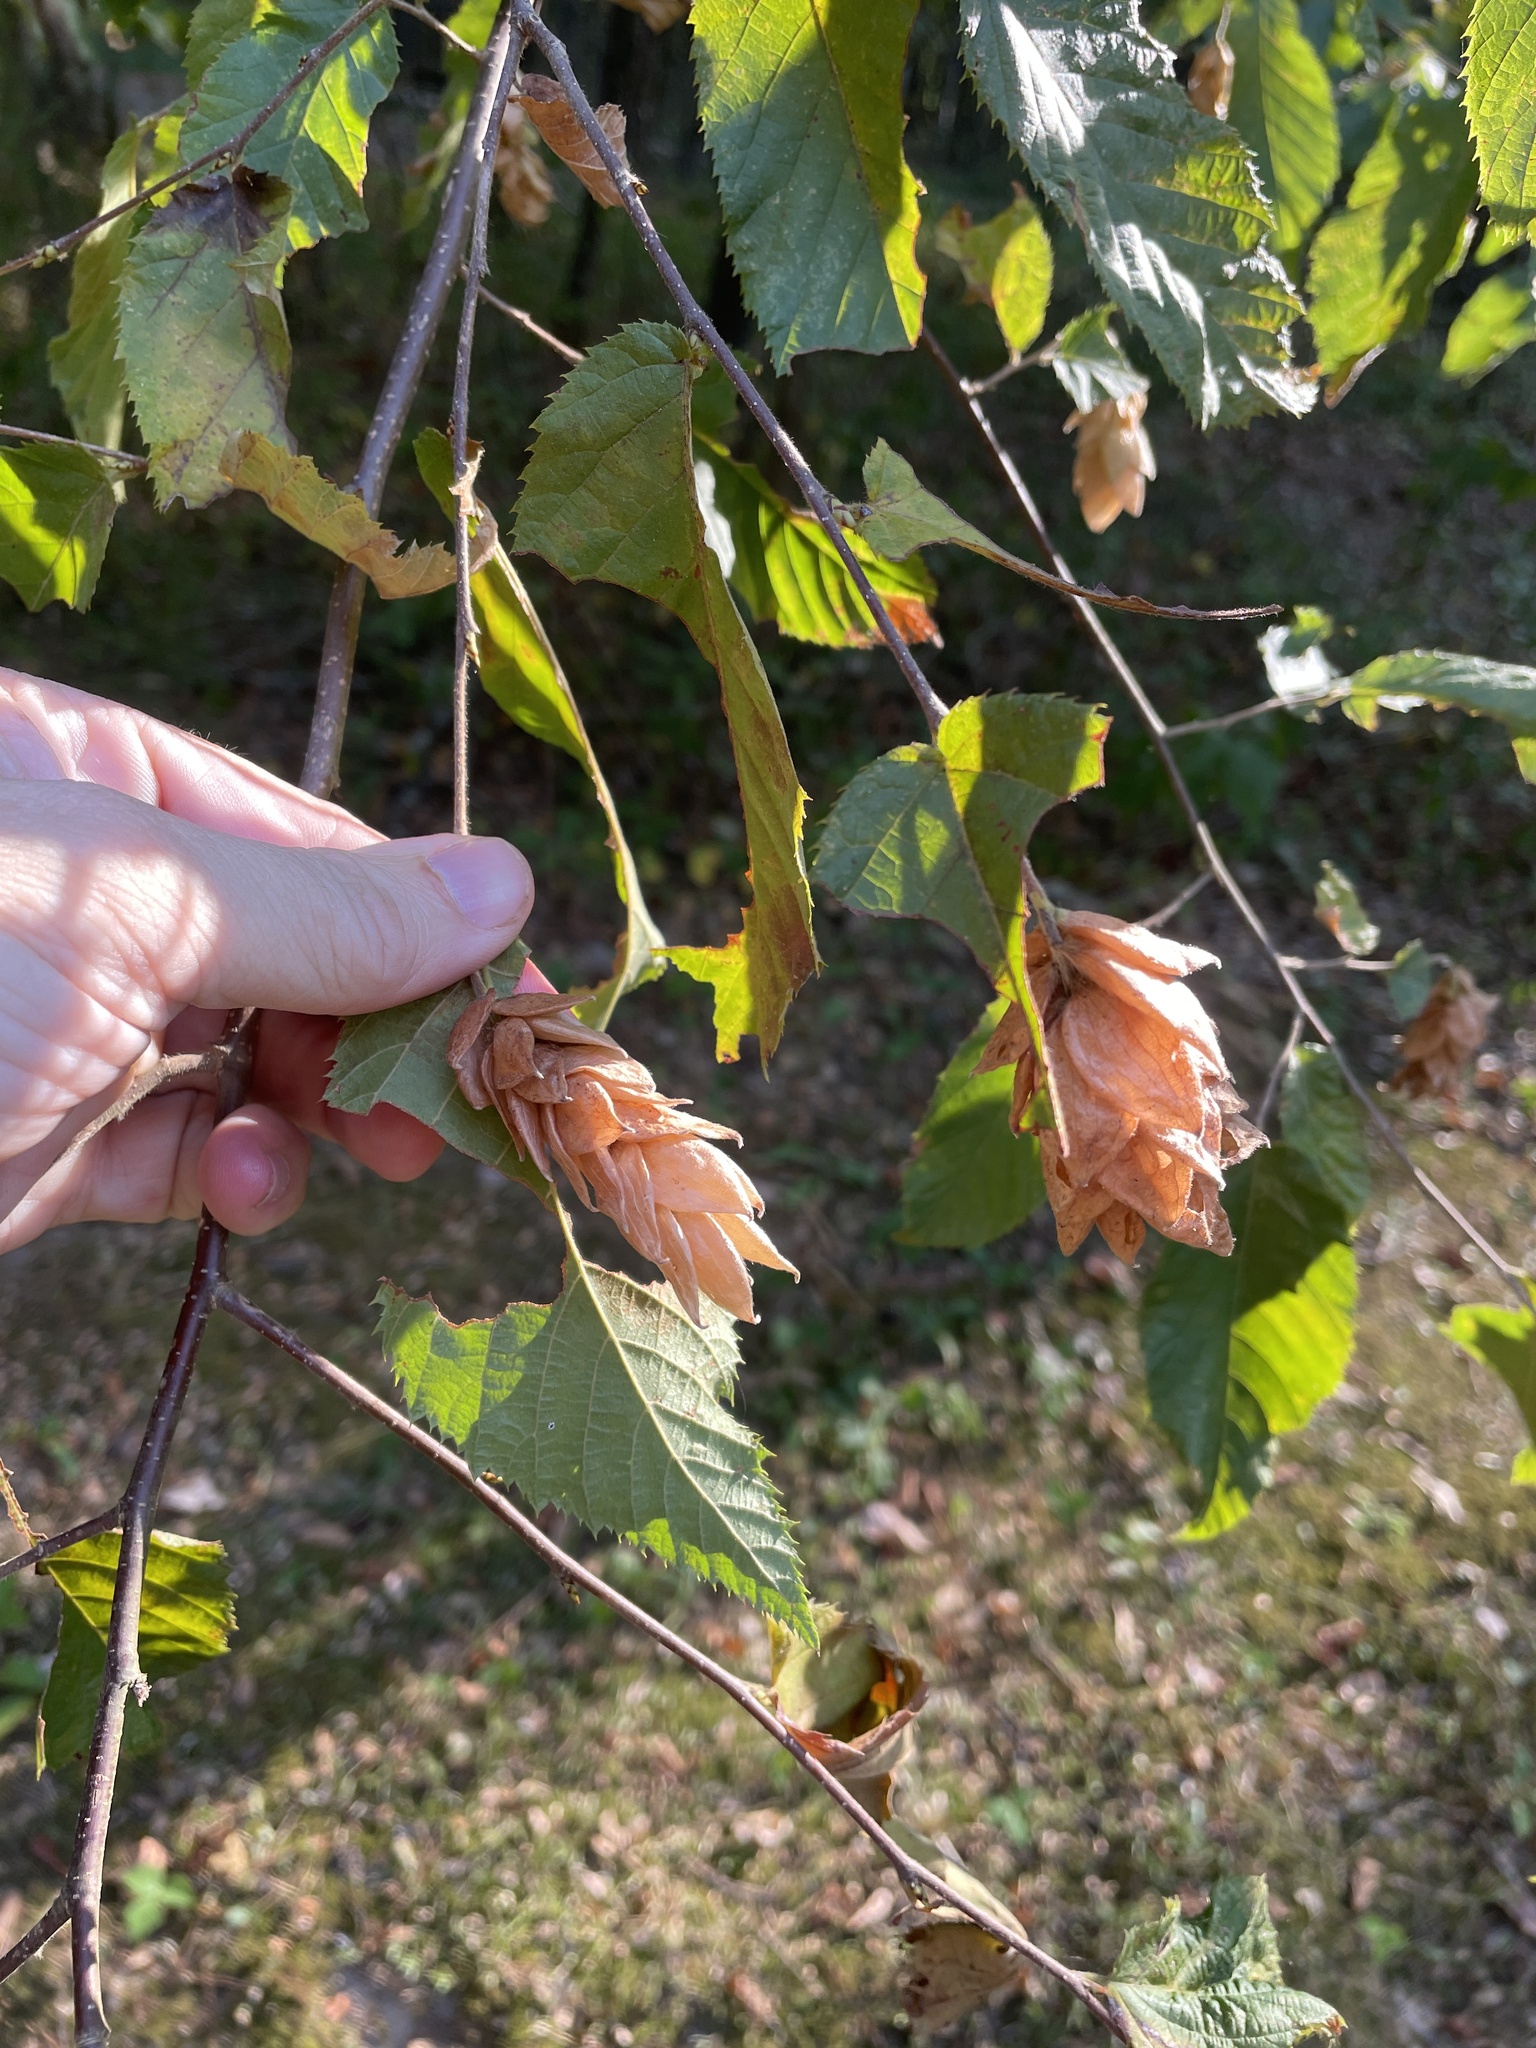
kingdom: Plantae
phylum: Tracheophyta
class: Magnoliopsida
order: Fagales
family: Betulaceae
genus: Ostrya
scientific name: Ostrya virginiana
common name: Ironwood
